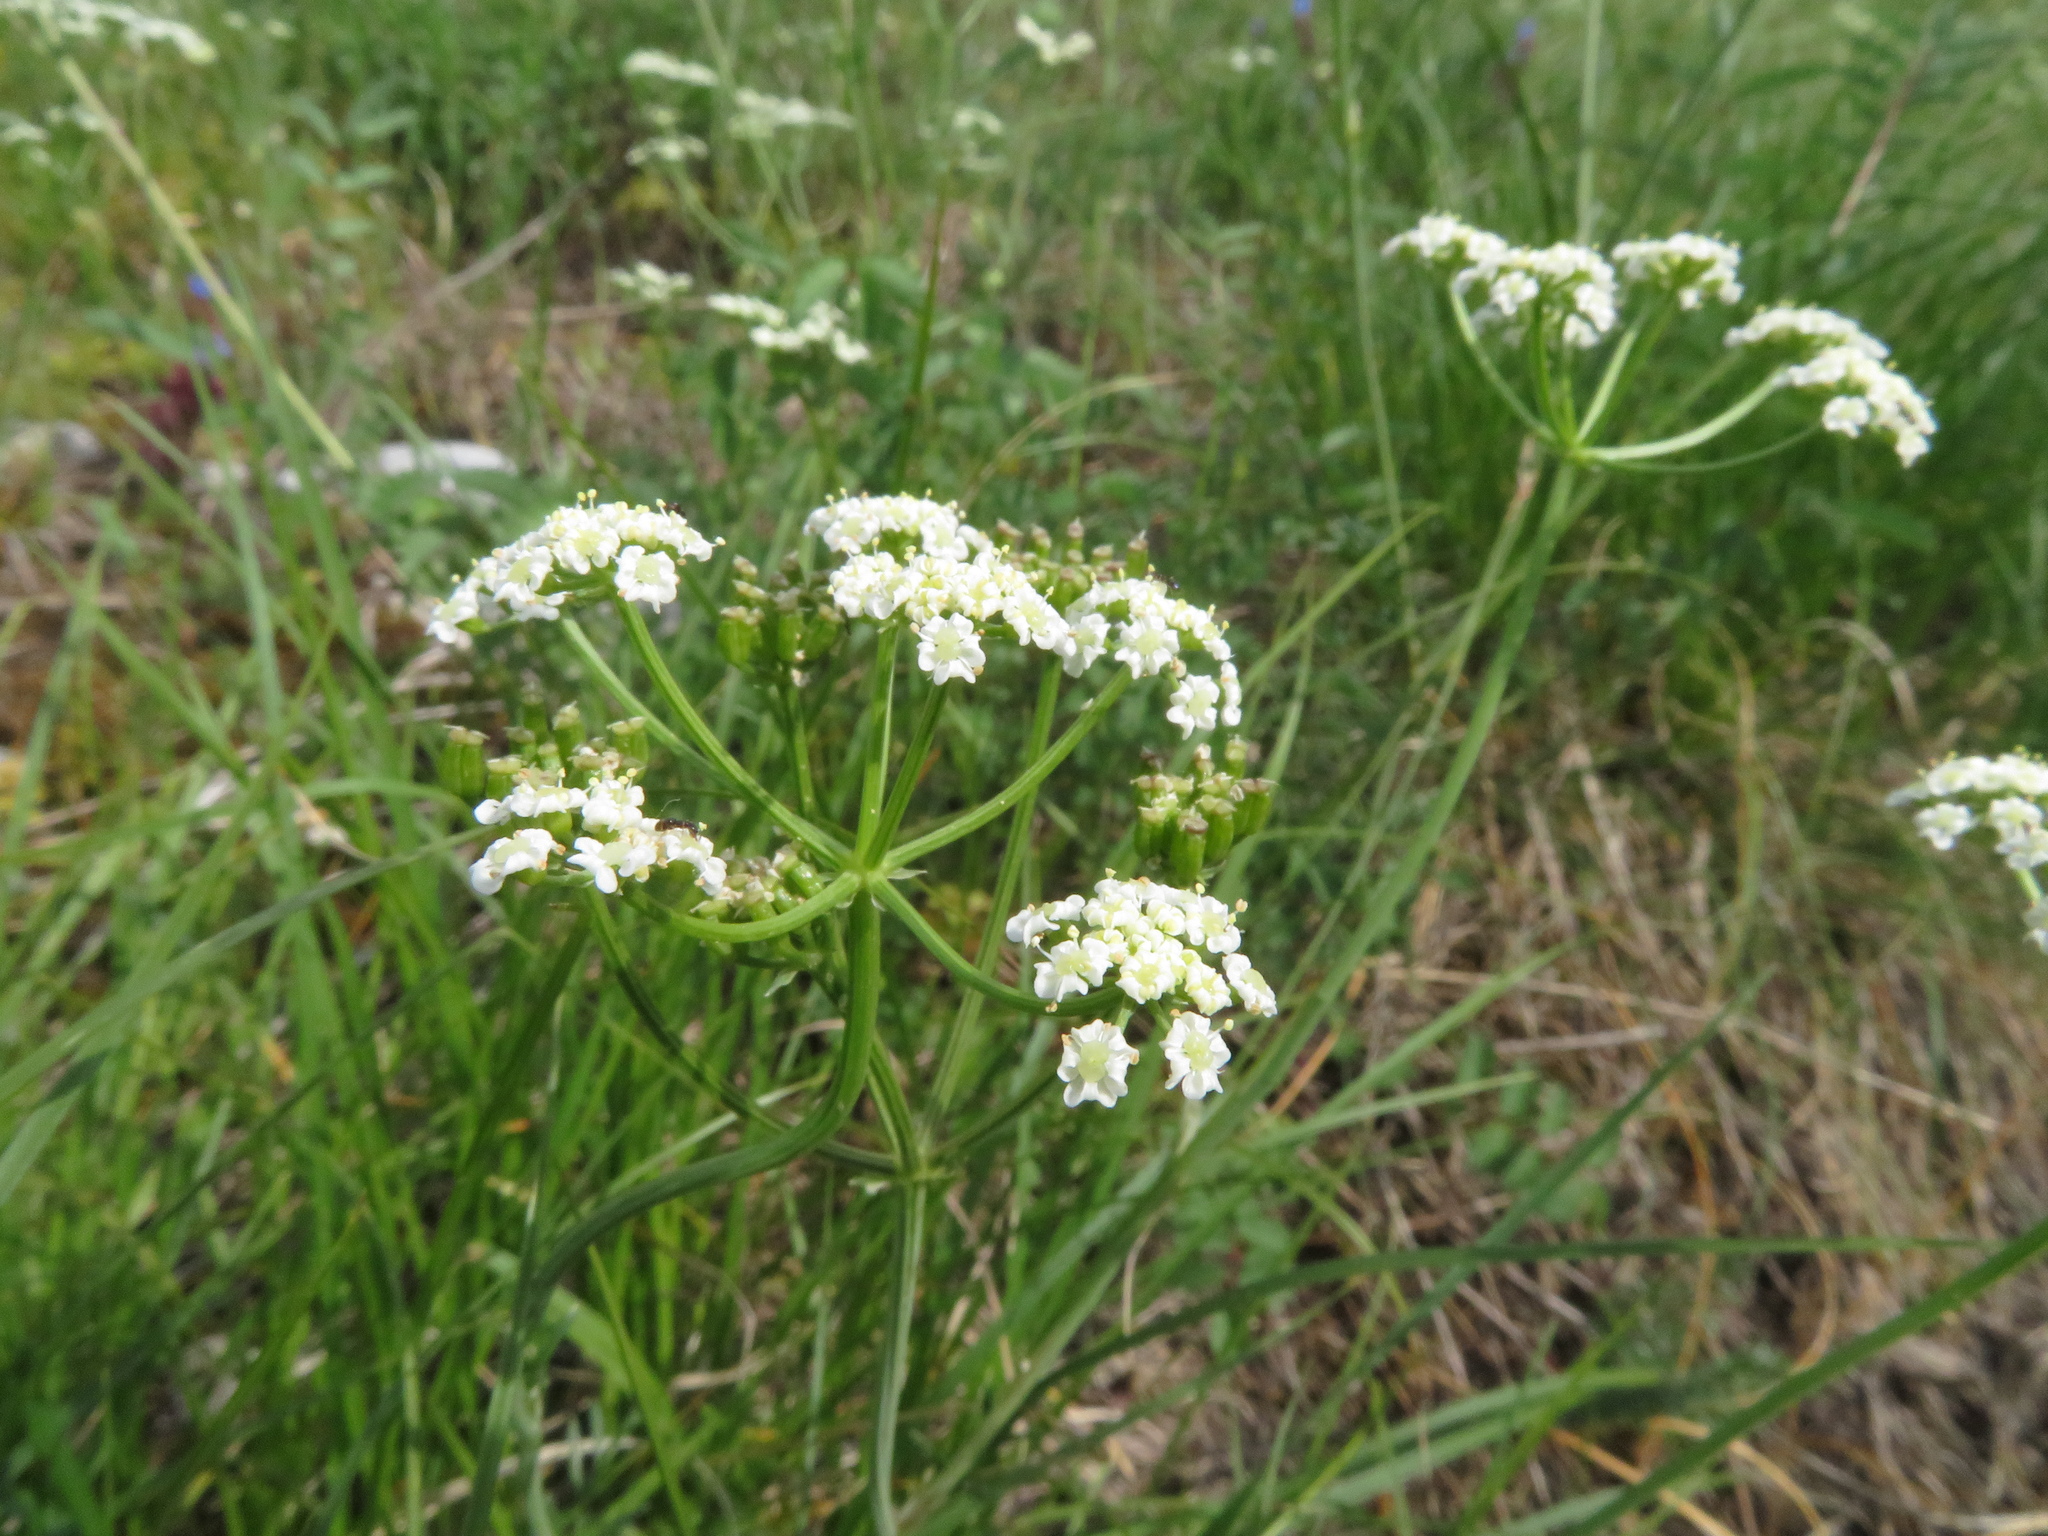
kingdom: Plantae
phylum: Tracheophyta
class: Magnoliopsida
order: Apiales
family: Apiaceae
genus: Oenanthe
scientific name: Oenanthe pimpinelloides
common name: Corky-fruited water-dropwort
